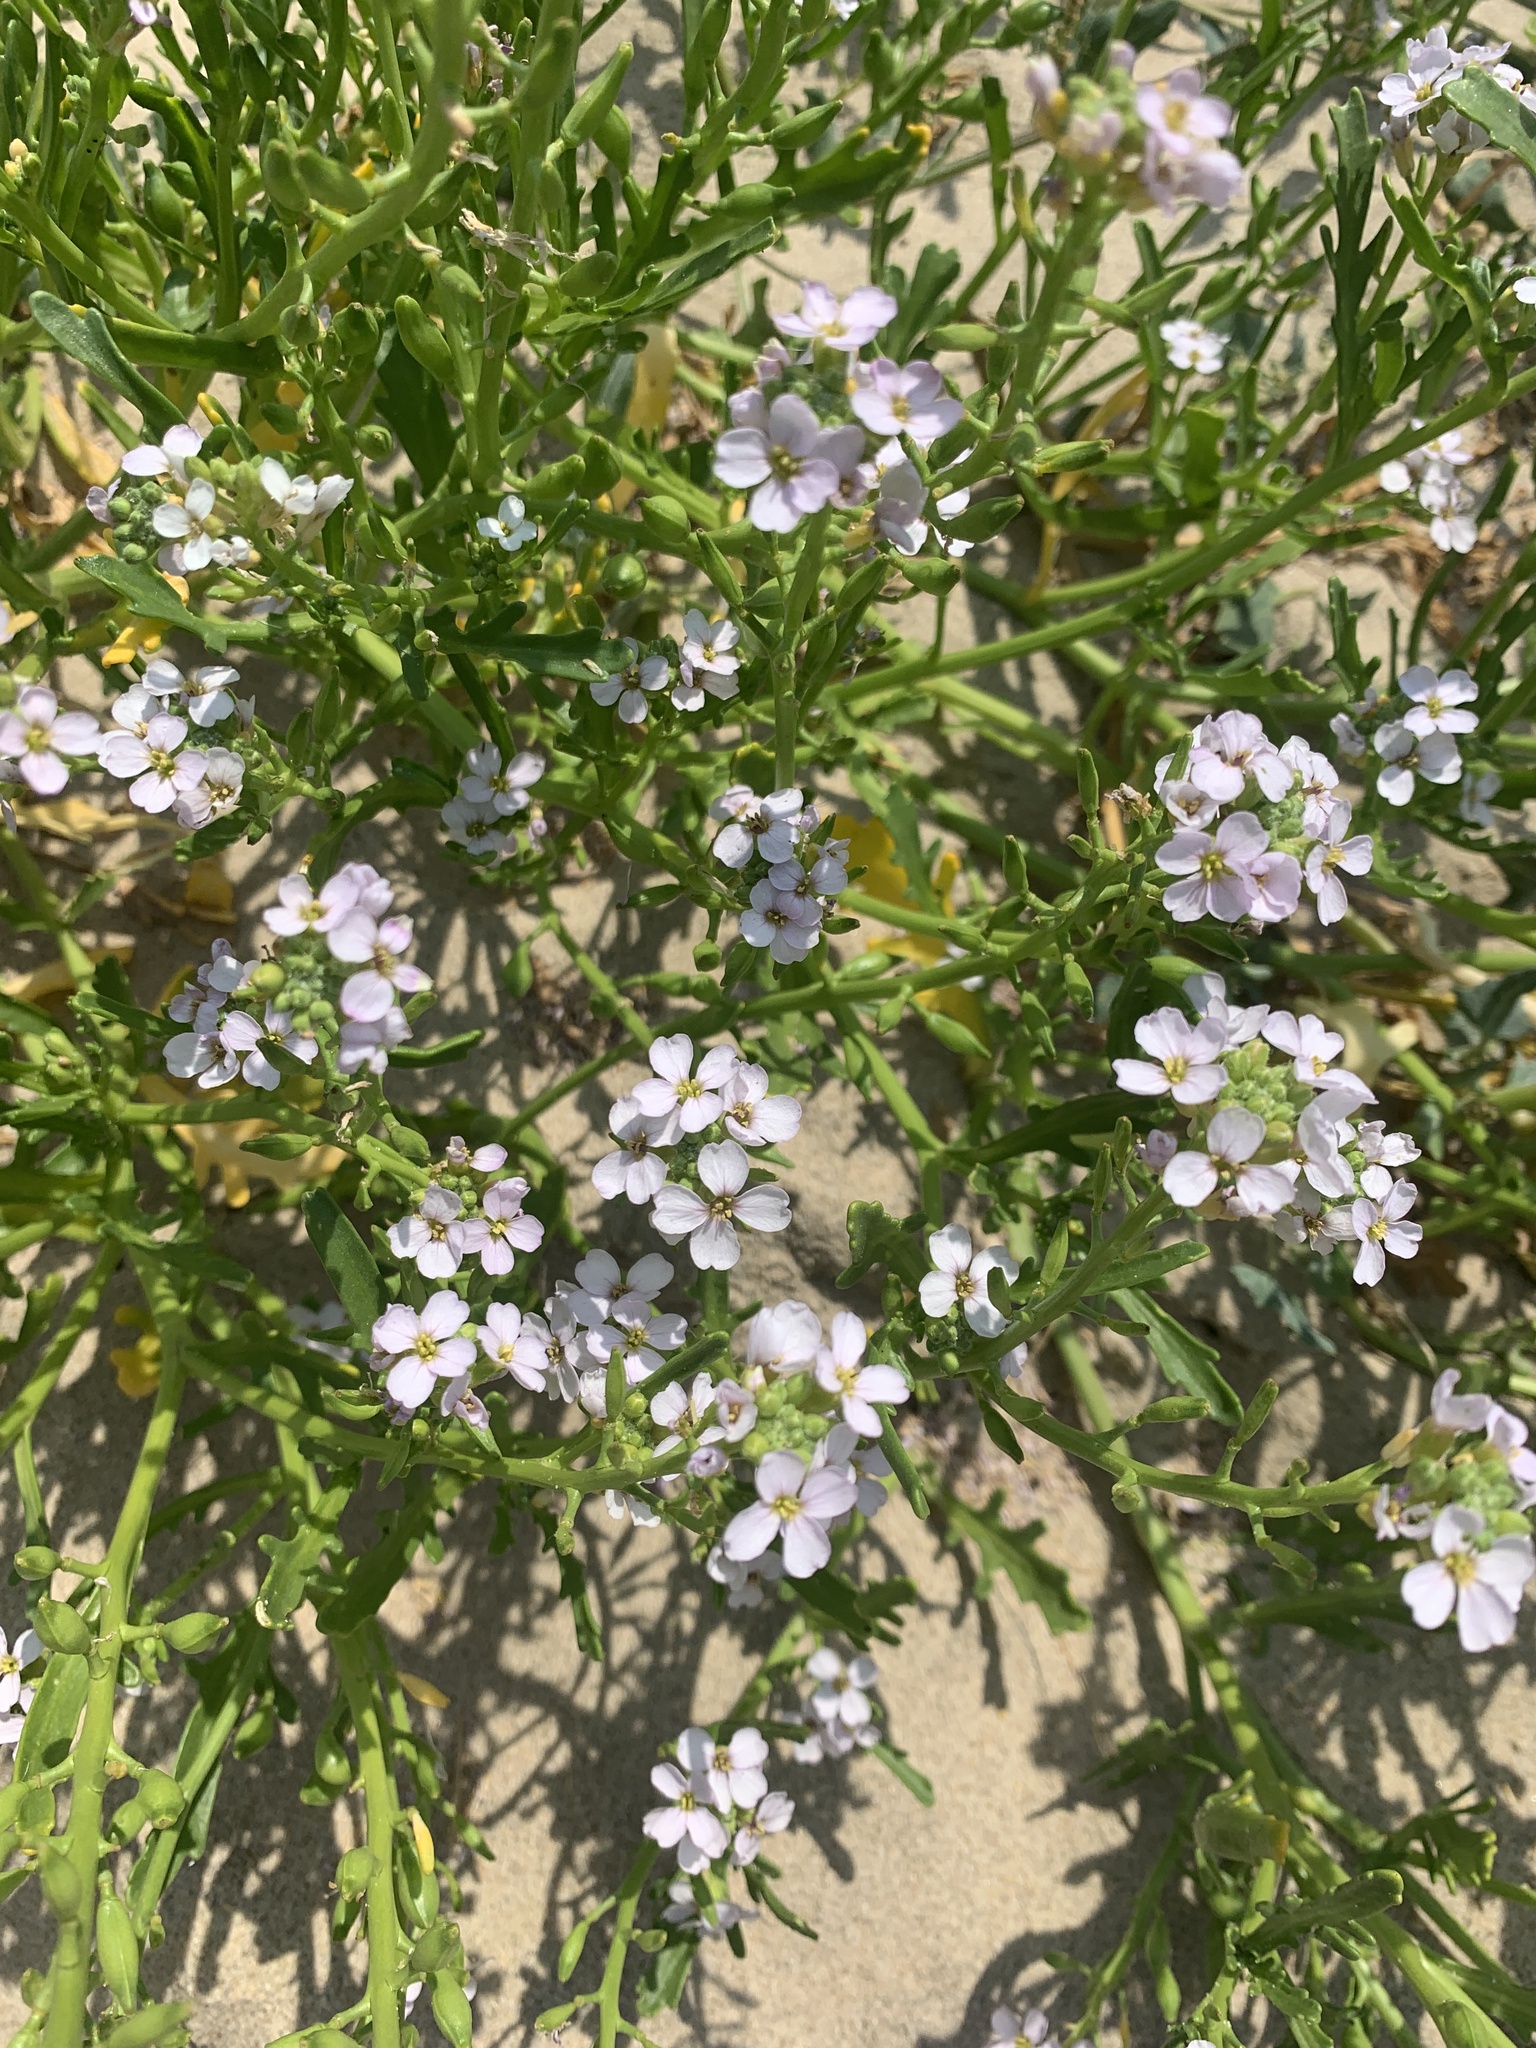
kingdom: Plantae
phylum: Tracheophyta
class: Magnoliopsida
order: Brassicales
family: Brassicaceae
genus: Cakile
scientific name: Cakile maritima
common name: Sea rocket
